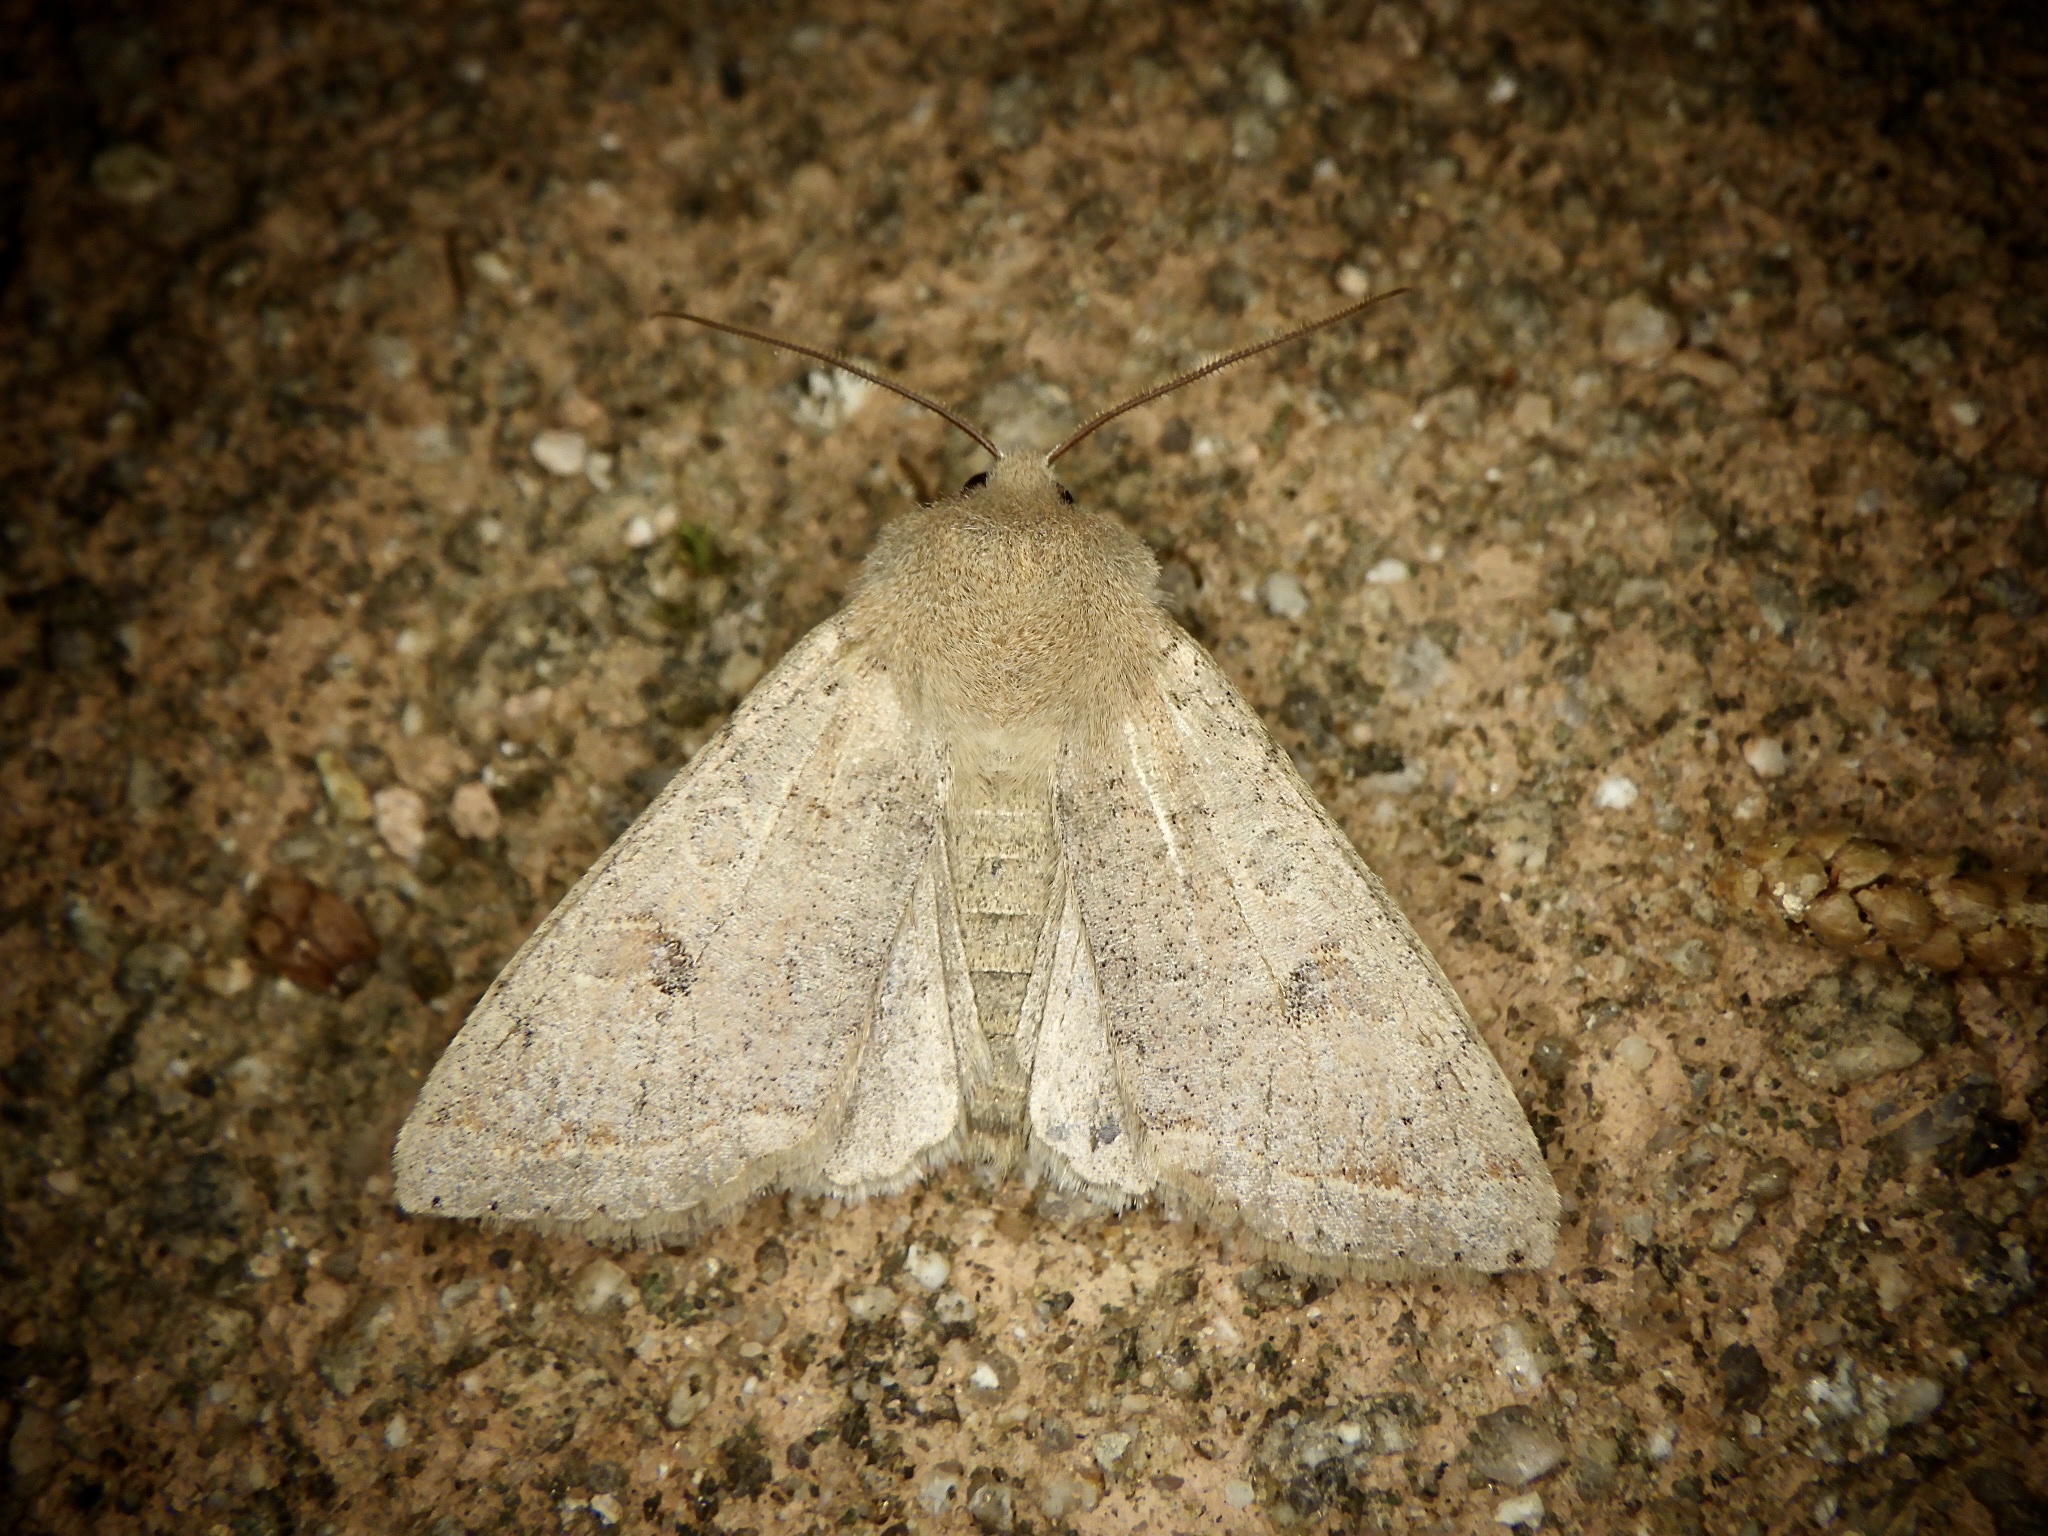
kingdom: Animalia
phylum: Arthropoda
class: Insecta
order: Lepidoptera
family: Noctuidae
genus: Anorthoa
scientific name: Anorthoa angustipennis
